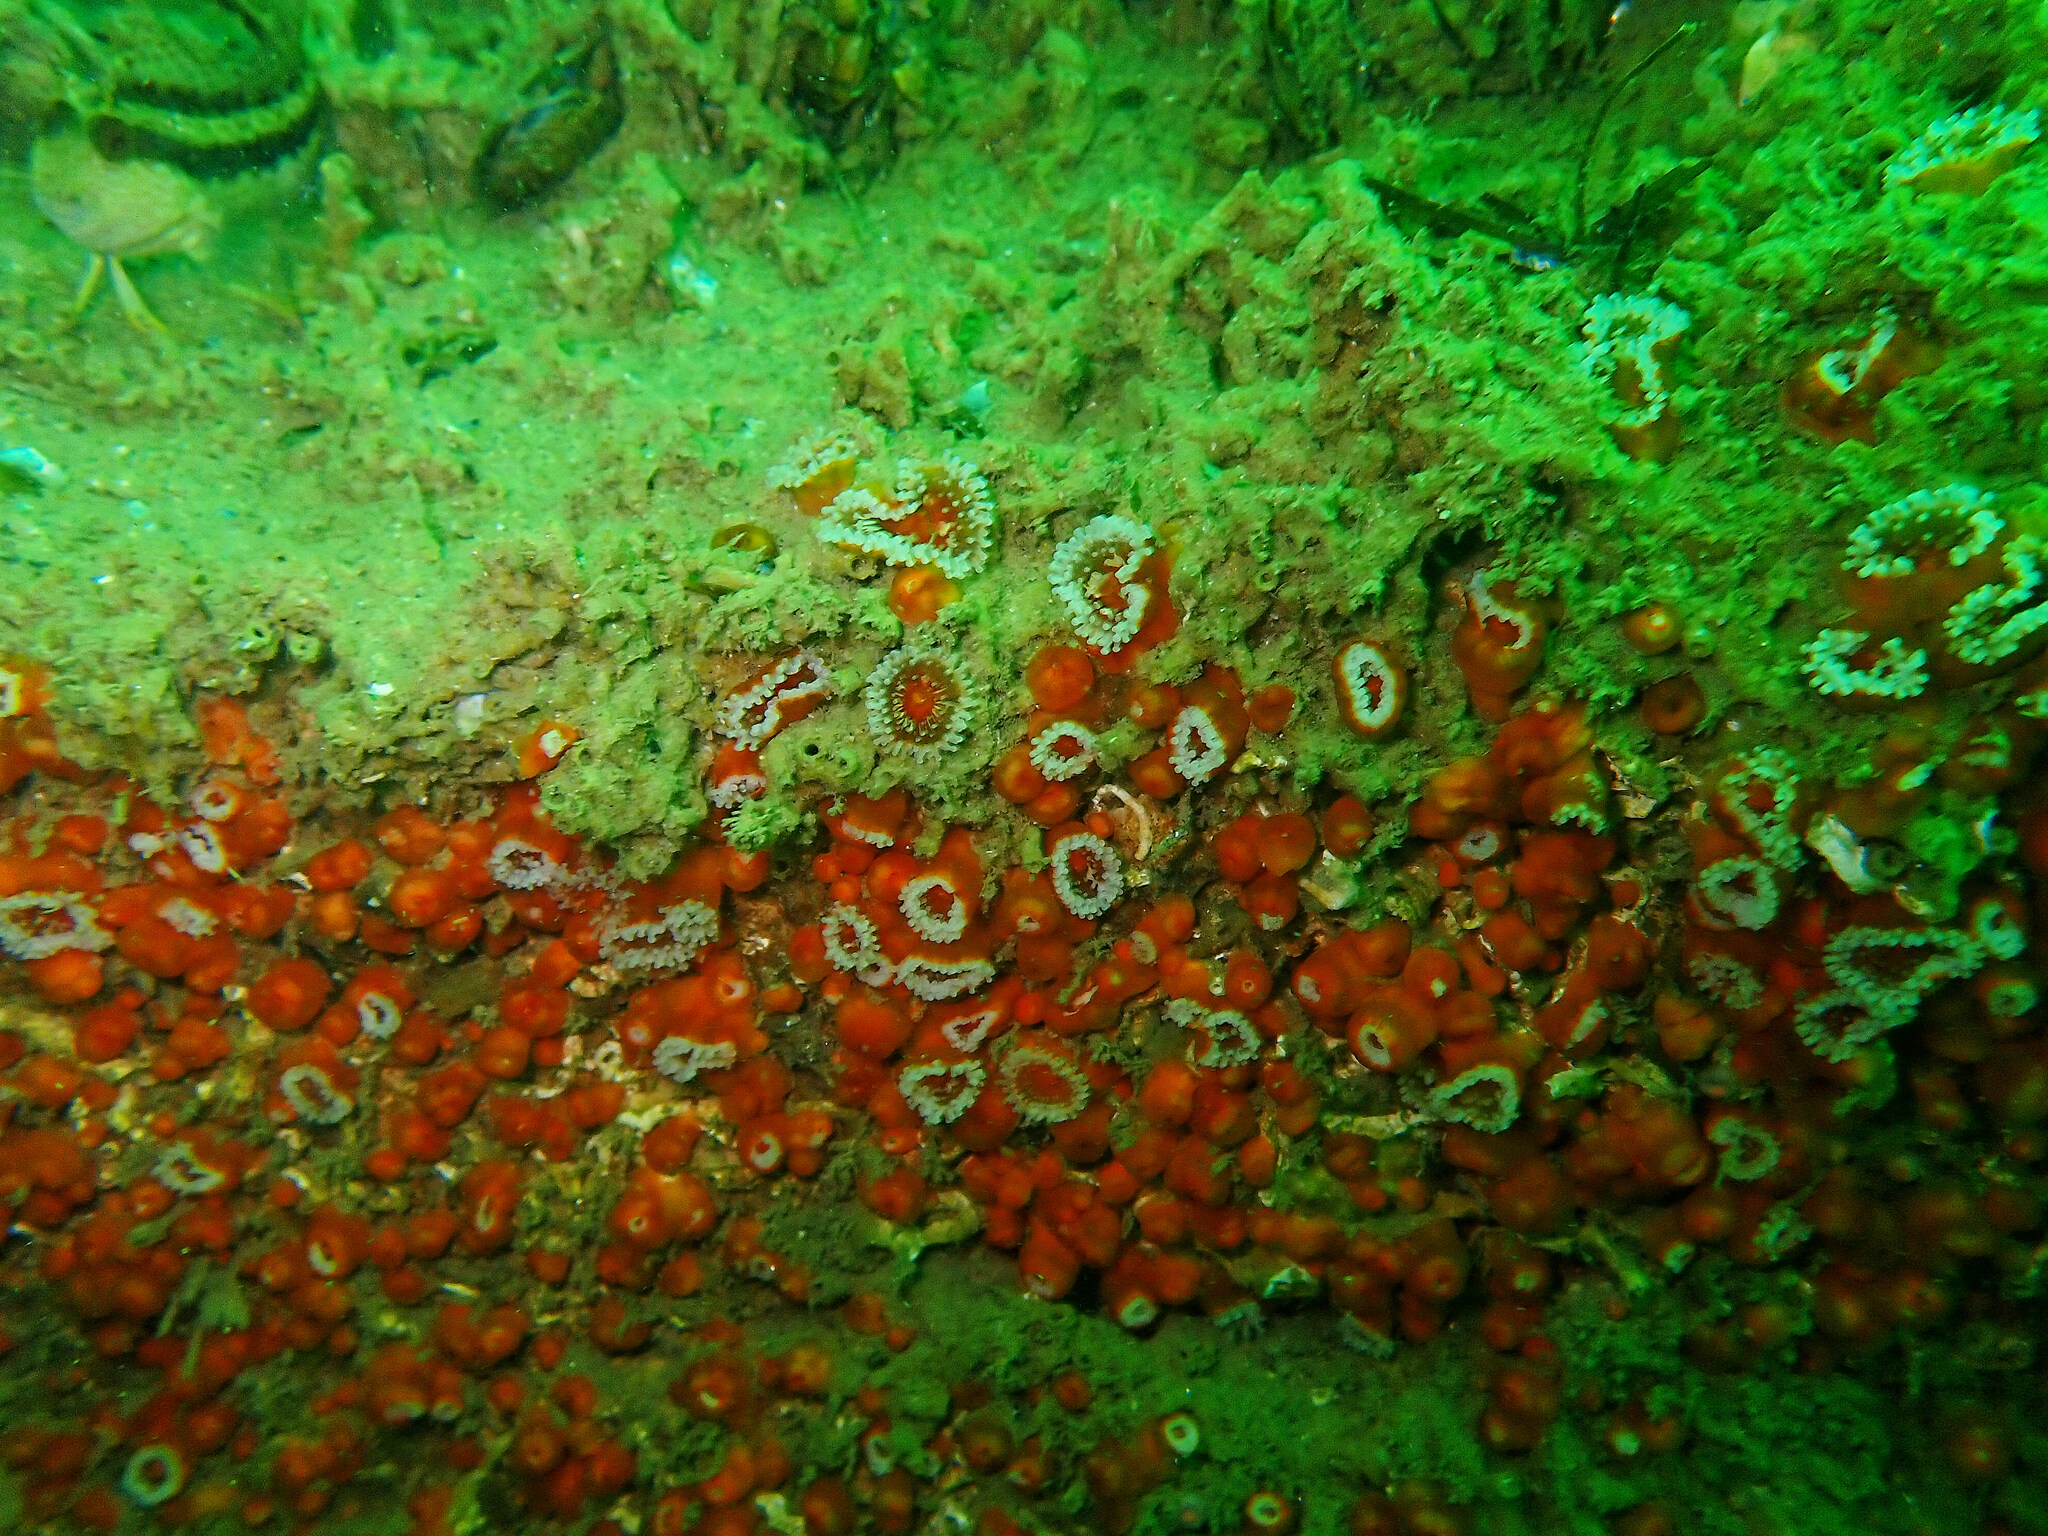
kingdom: Animalia
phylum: Cnidaria
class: Anthozoa
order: Corallimorpharia
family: Corallimorphidae
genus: Corynactis
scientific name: Corynactis viridis
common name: Jewel anemone
